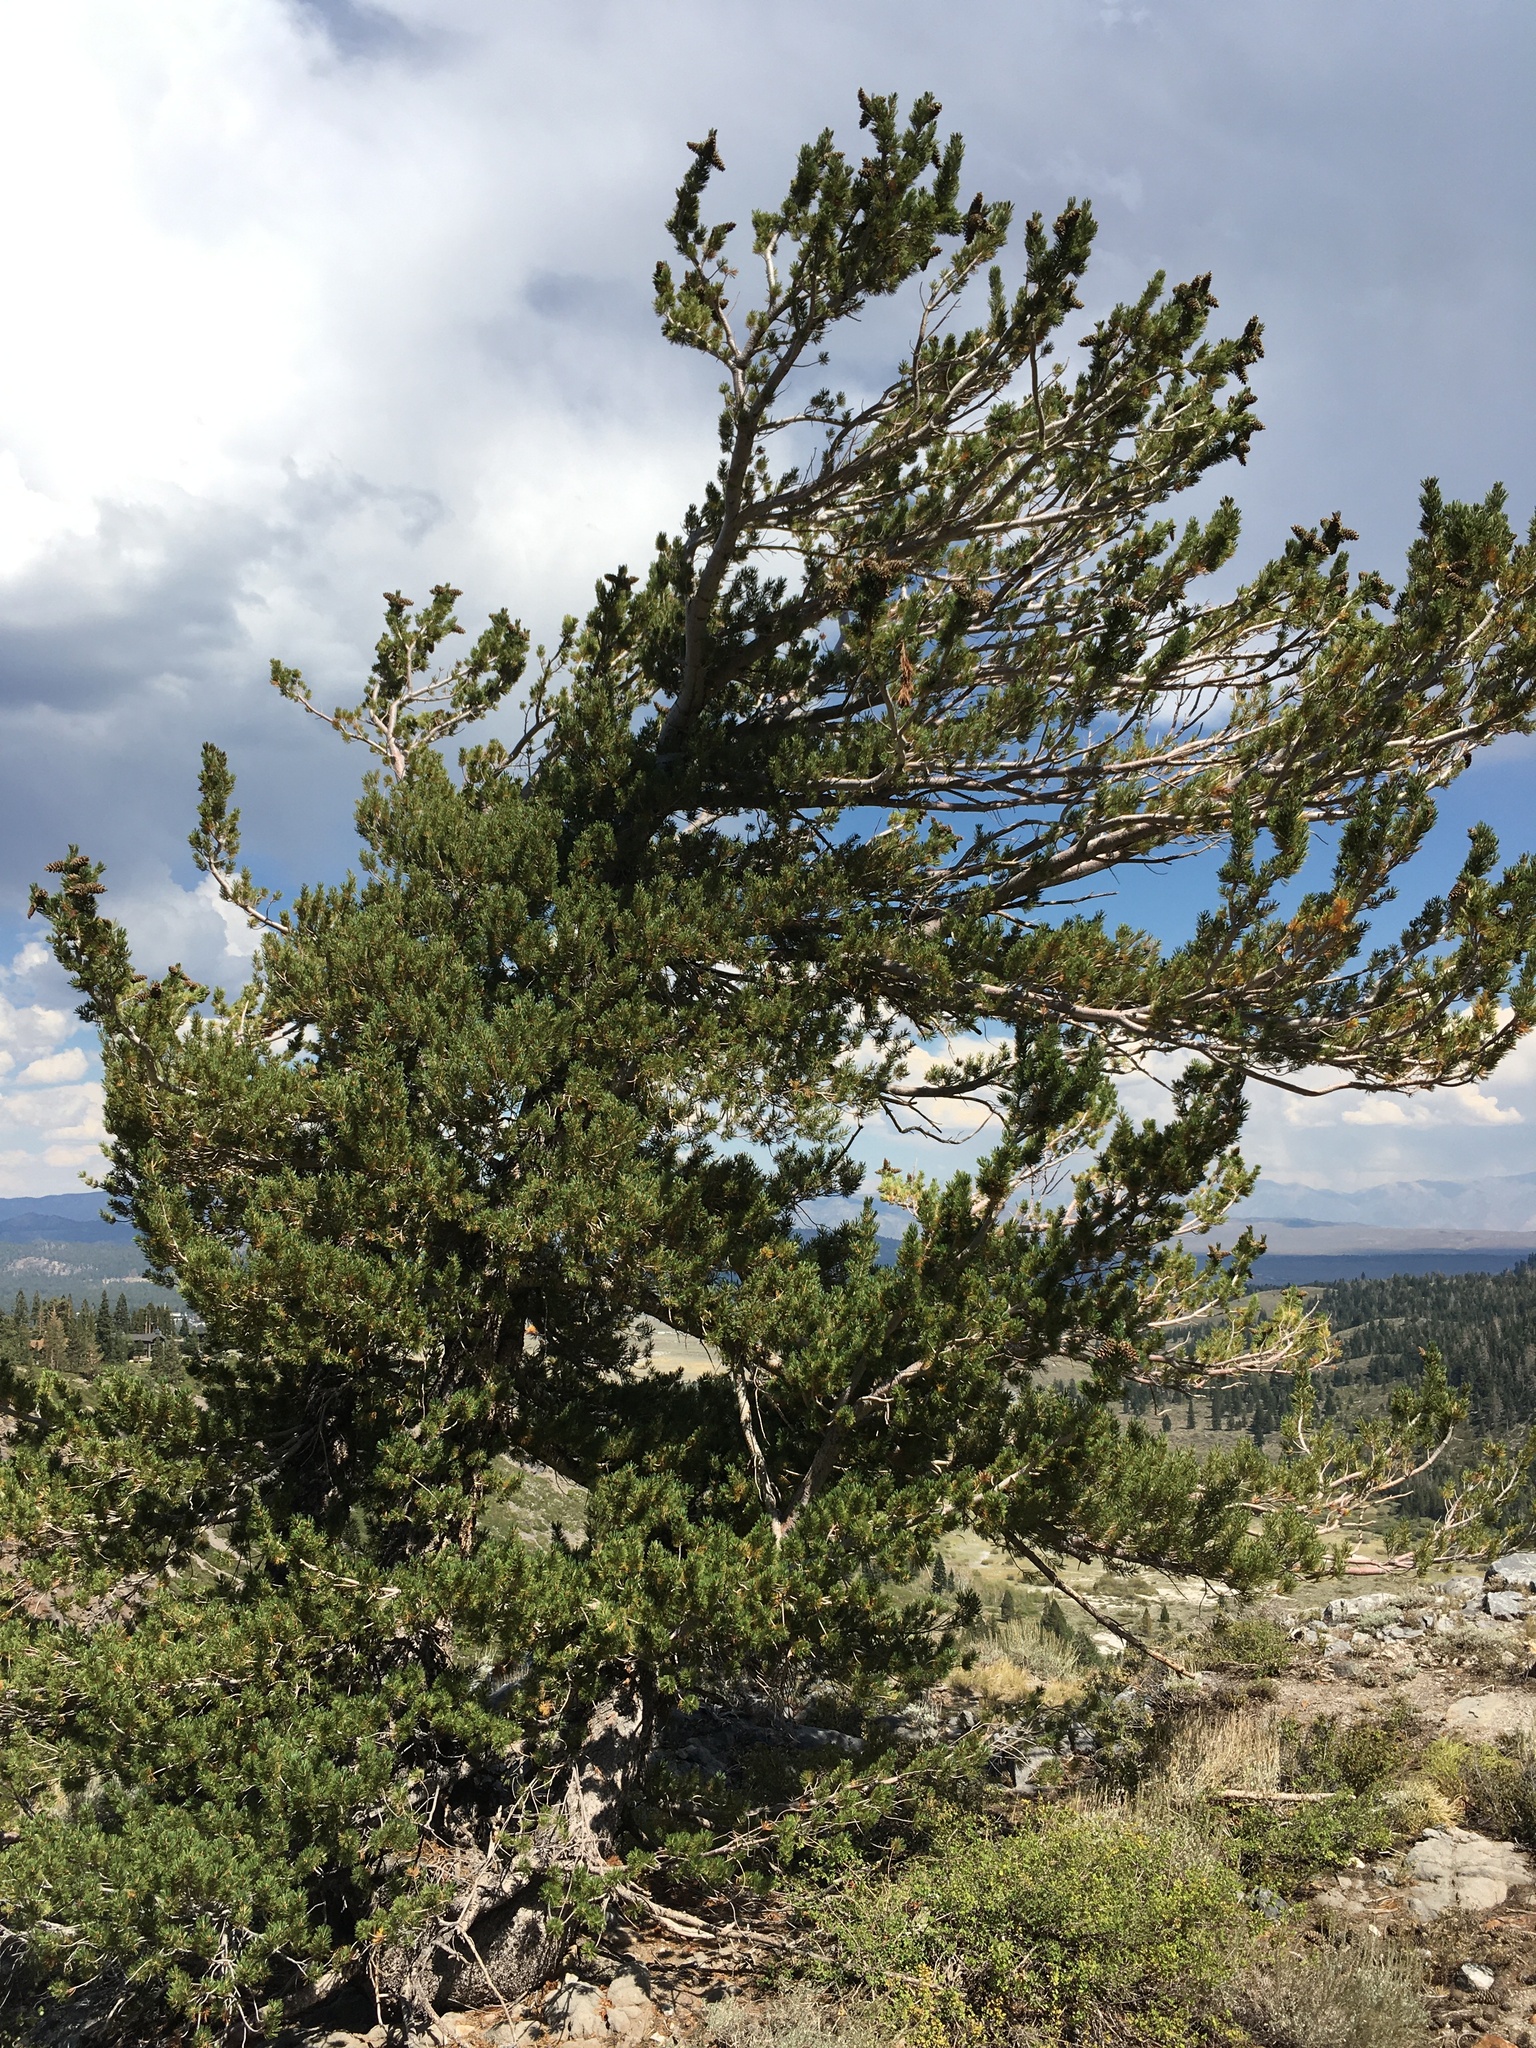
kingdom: Plantae
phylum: Tracheophyta
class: Pinopsida
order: Pinales
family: Pinaceae
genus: Pinus
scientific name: Pinus flexilis
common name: Limber pine
